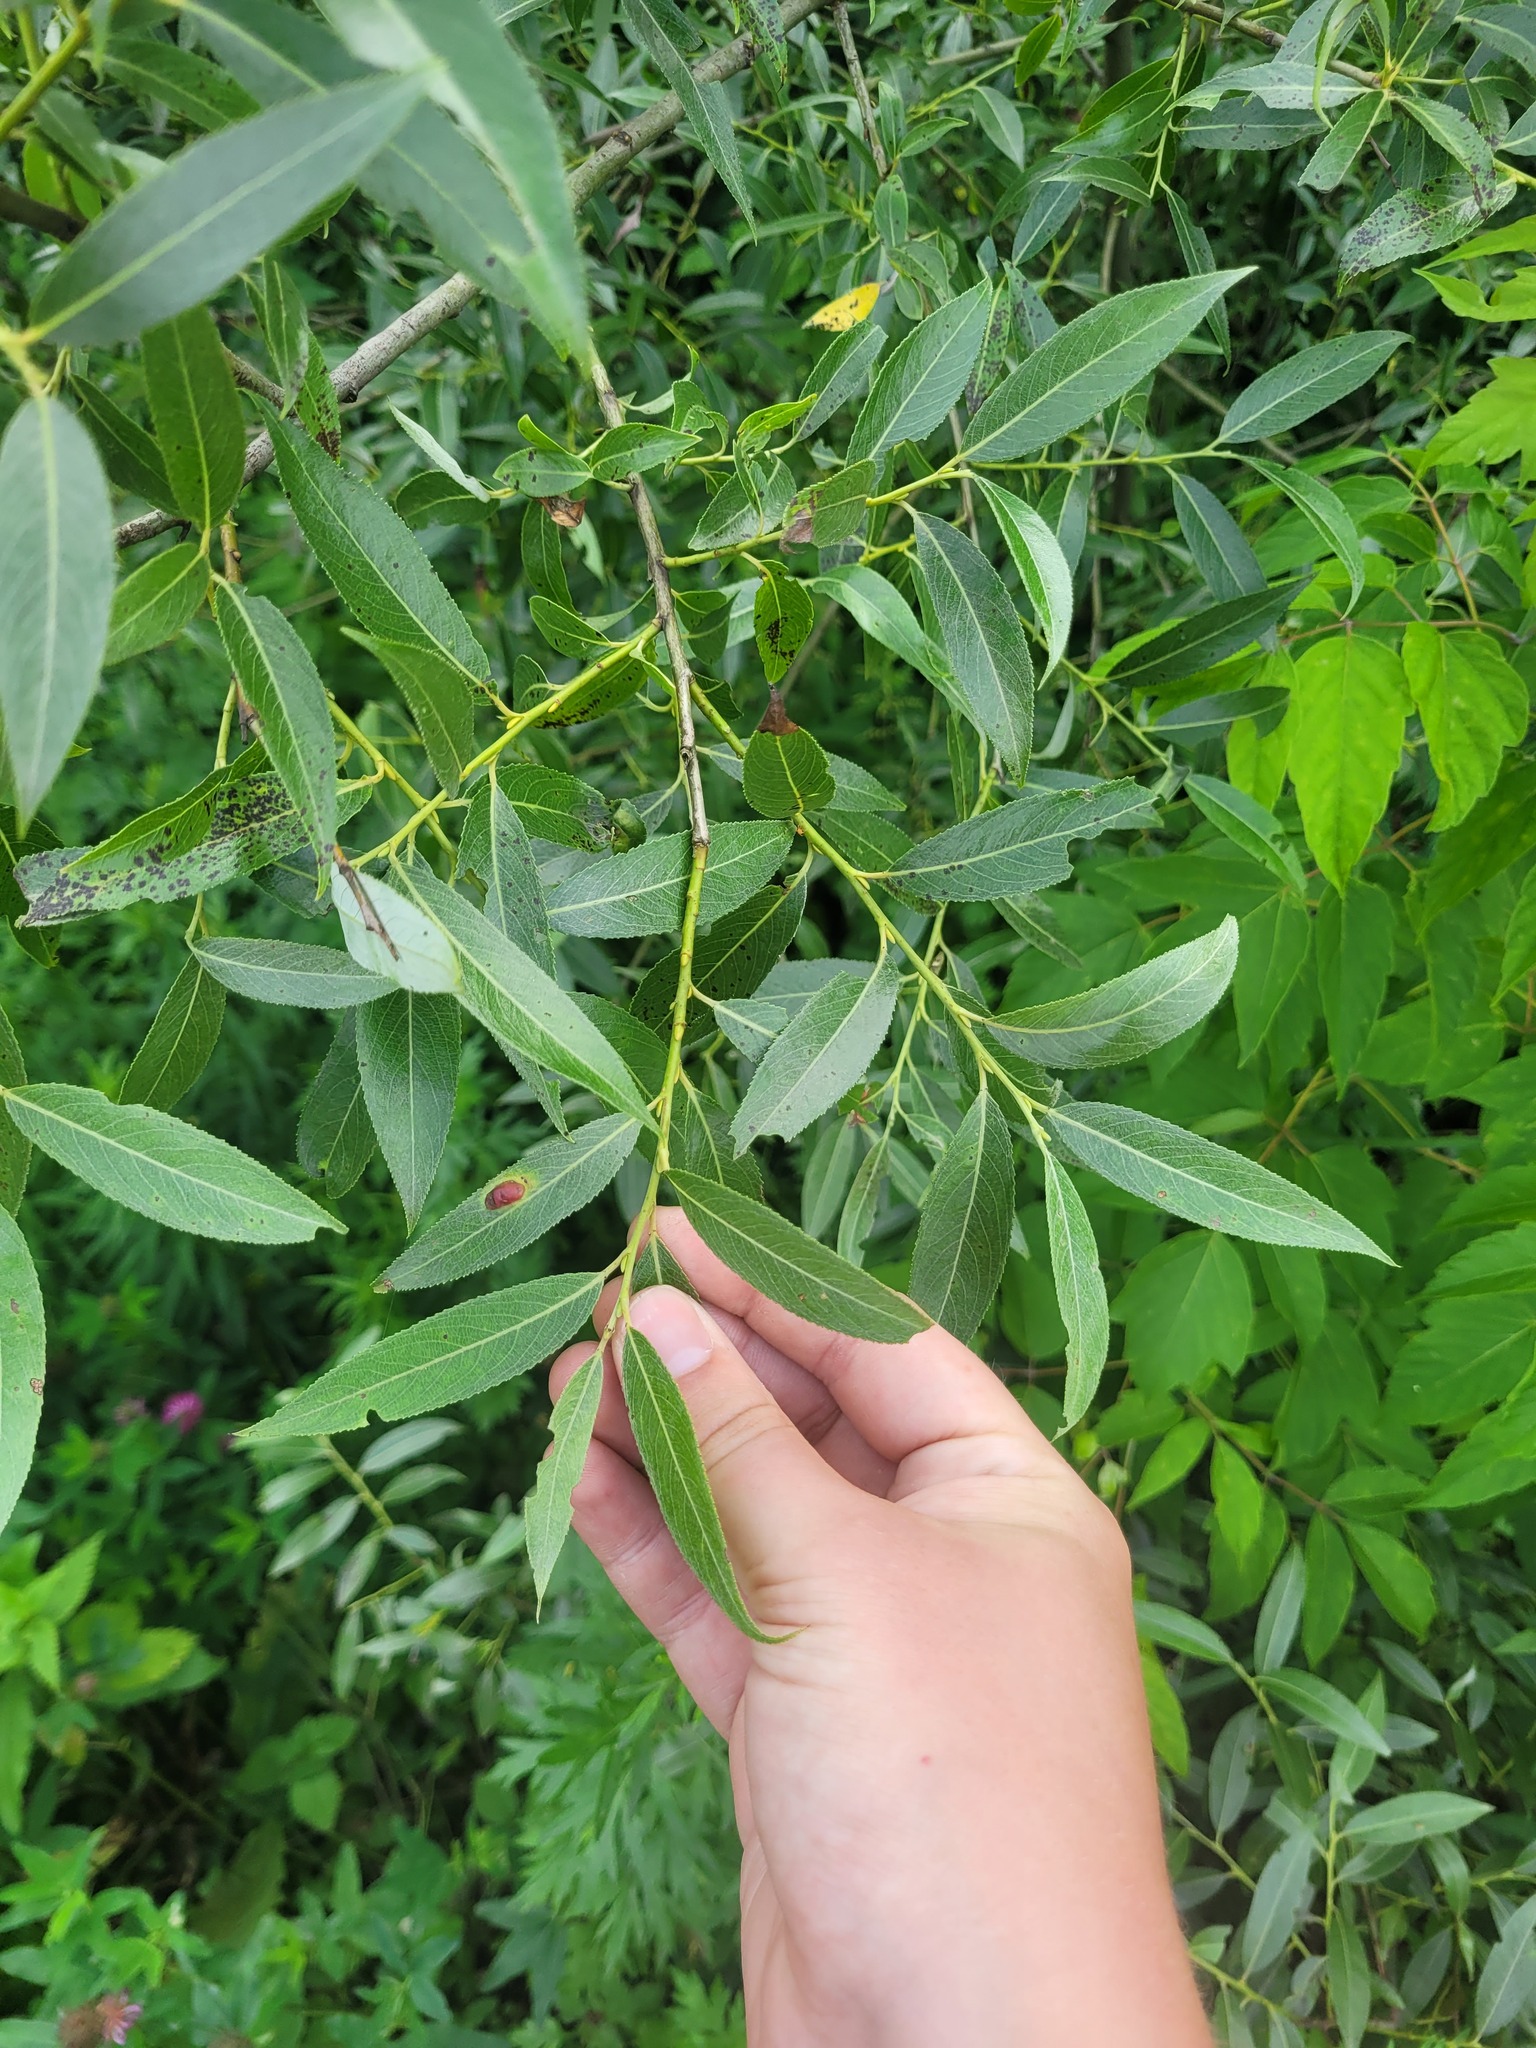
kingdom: Plantae
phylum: Tracheophyta
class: Magnoliopsida
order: Malpighiales
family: Salicaceae
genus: Salix
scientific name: Salix alba
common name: White willow
